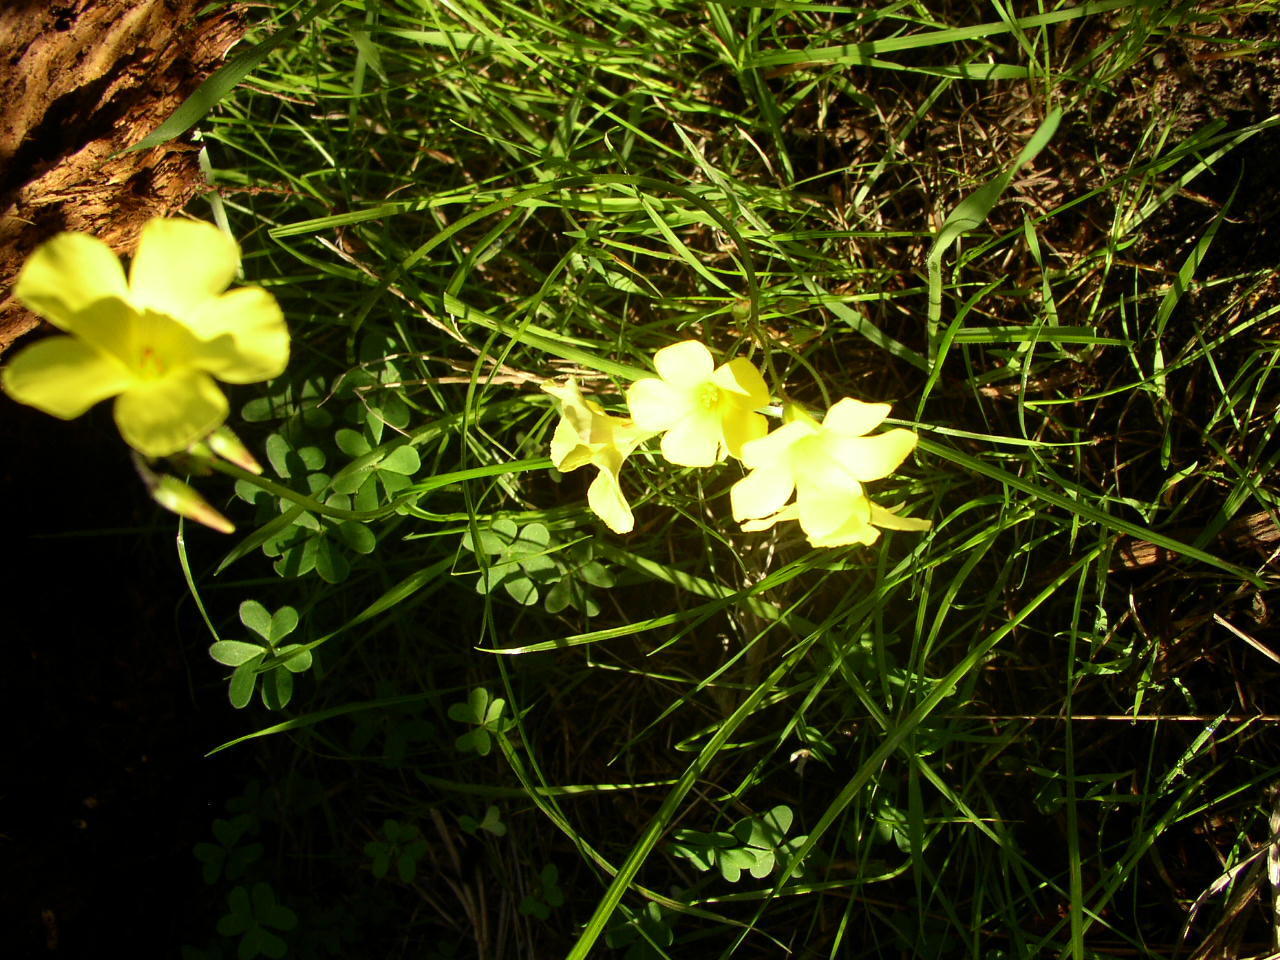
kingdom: Plantae
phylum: Tracheophyta
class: Magnoliopsida
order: Oxalidales
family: Oxalidaceae
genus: Oxalis
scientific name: Oxalis pes-caprae
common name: Bermuda-buttercup
